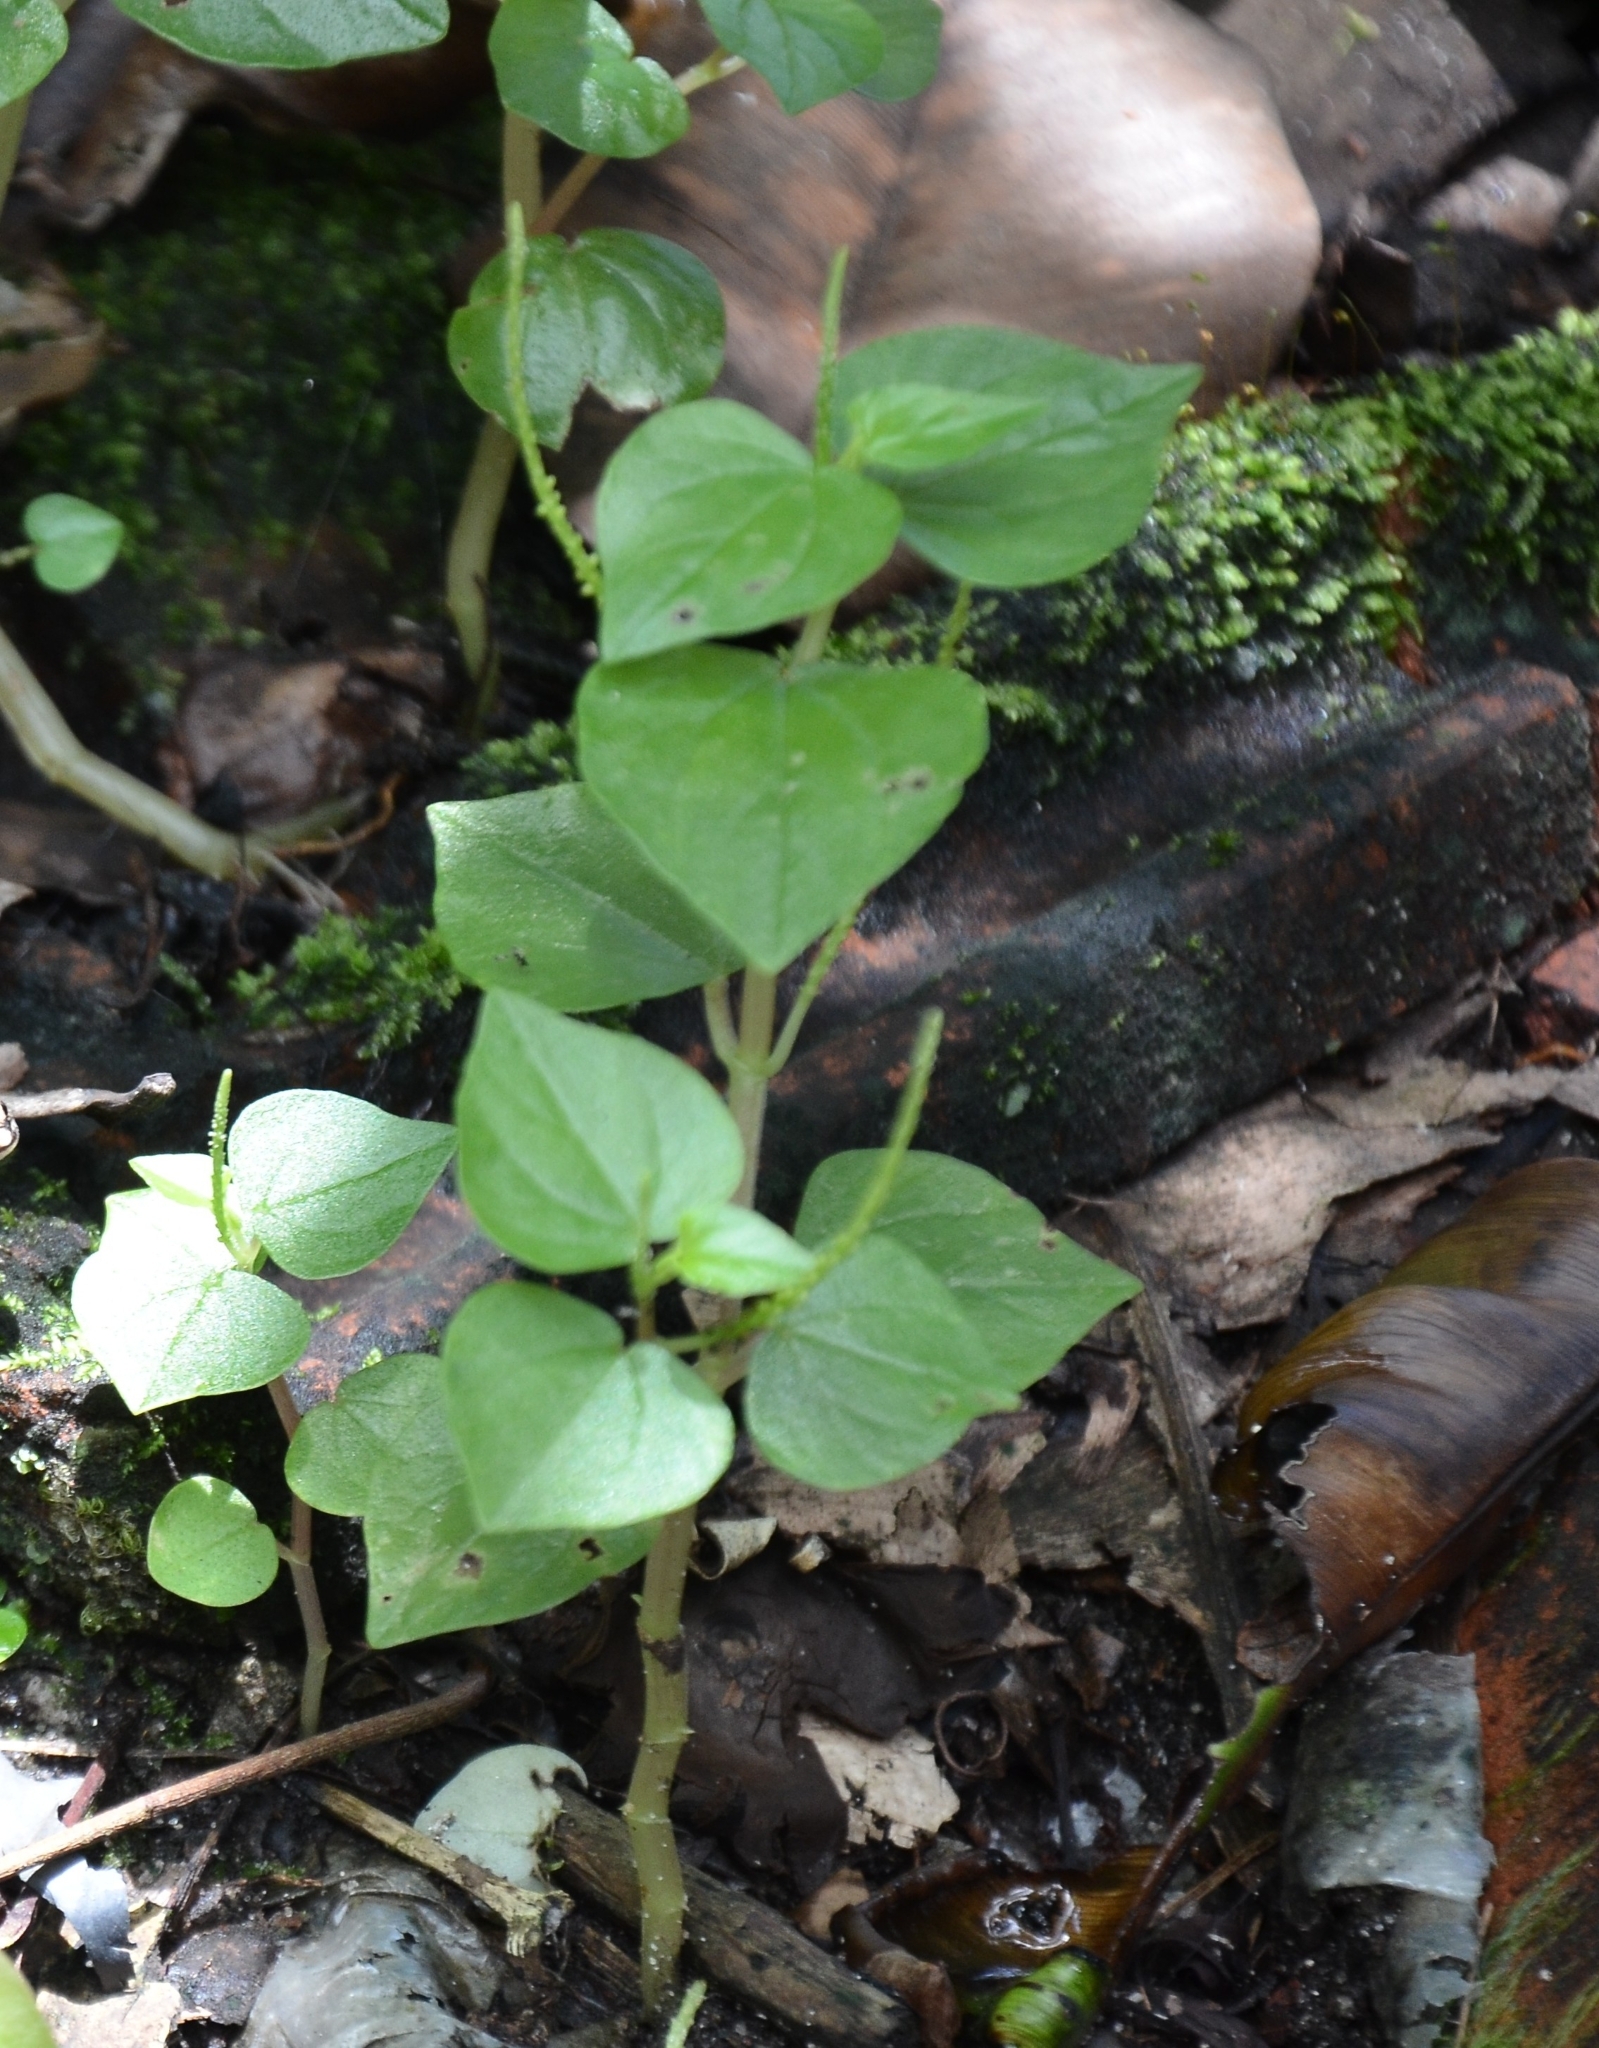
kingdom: Plantae
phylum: Tracheophyta
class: Magnoliopsida
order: Piperales
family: Piperaceae
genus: Peperomia
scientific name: Peperomia pellucida
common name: Man to man
